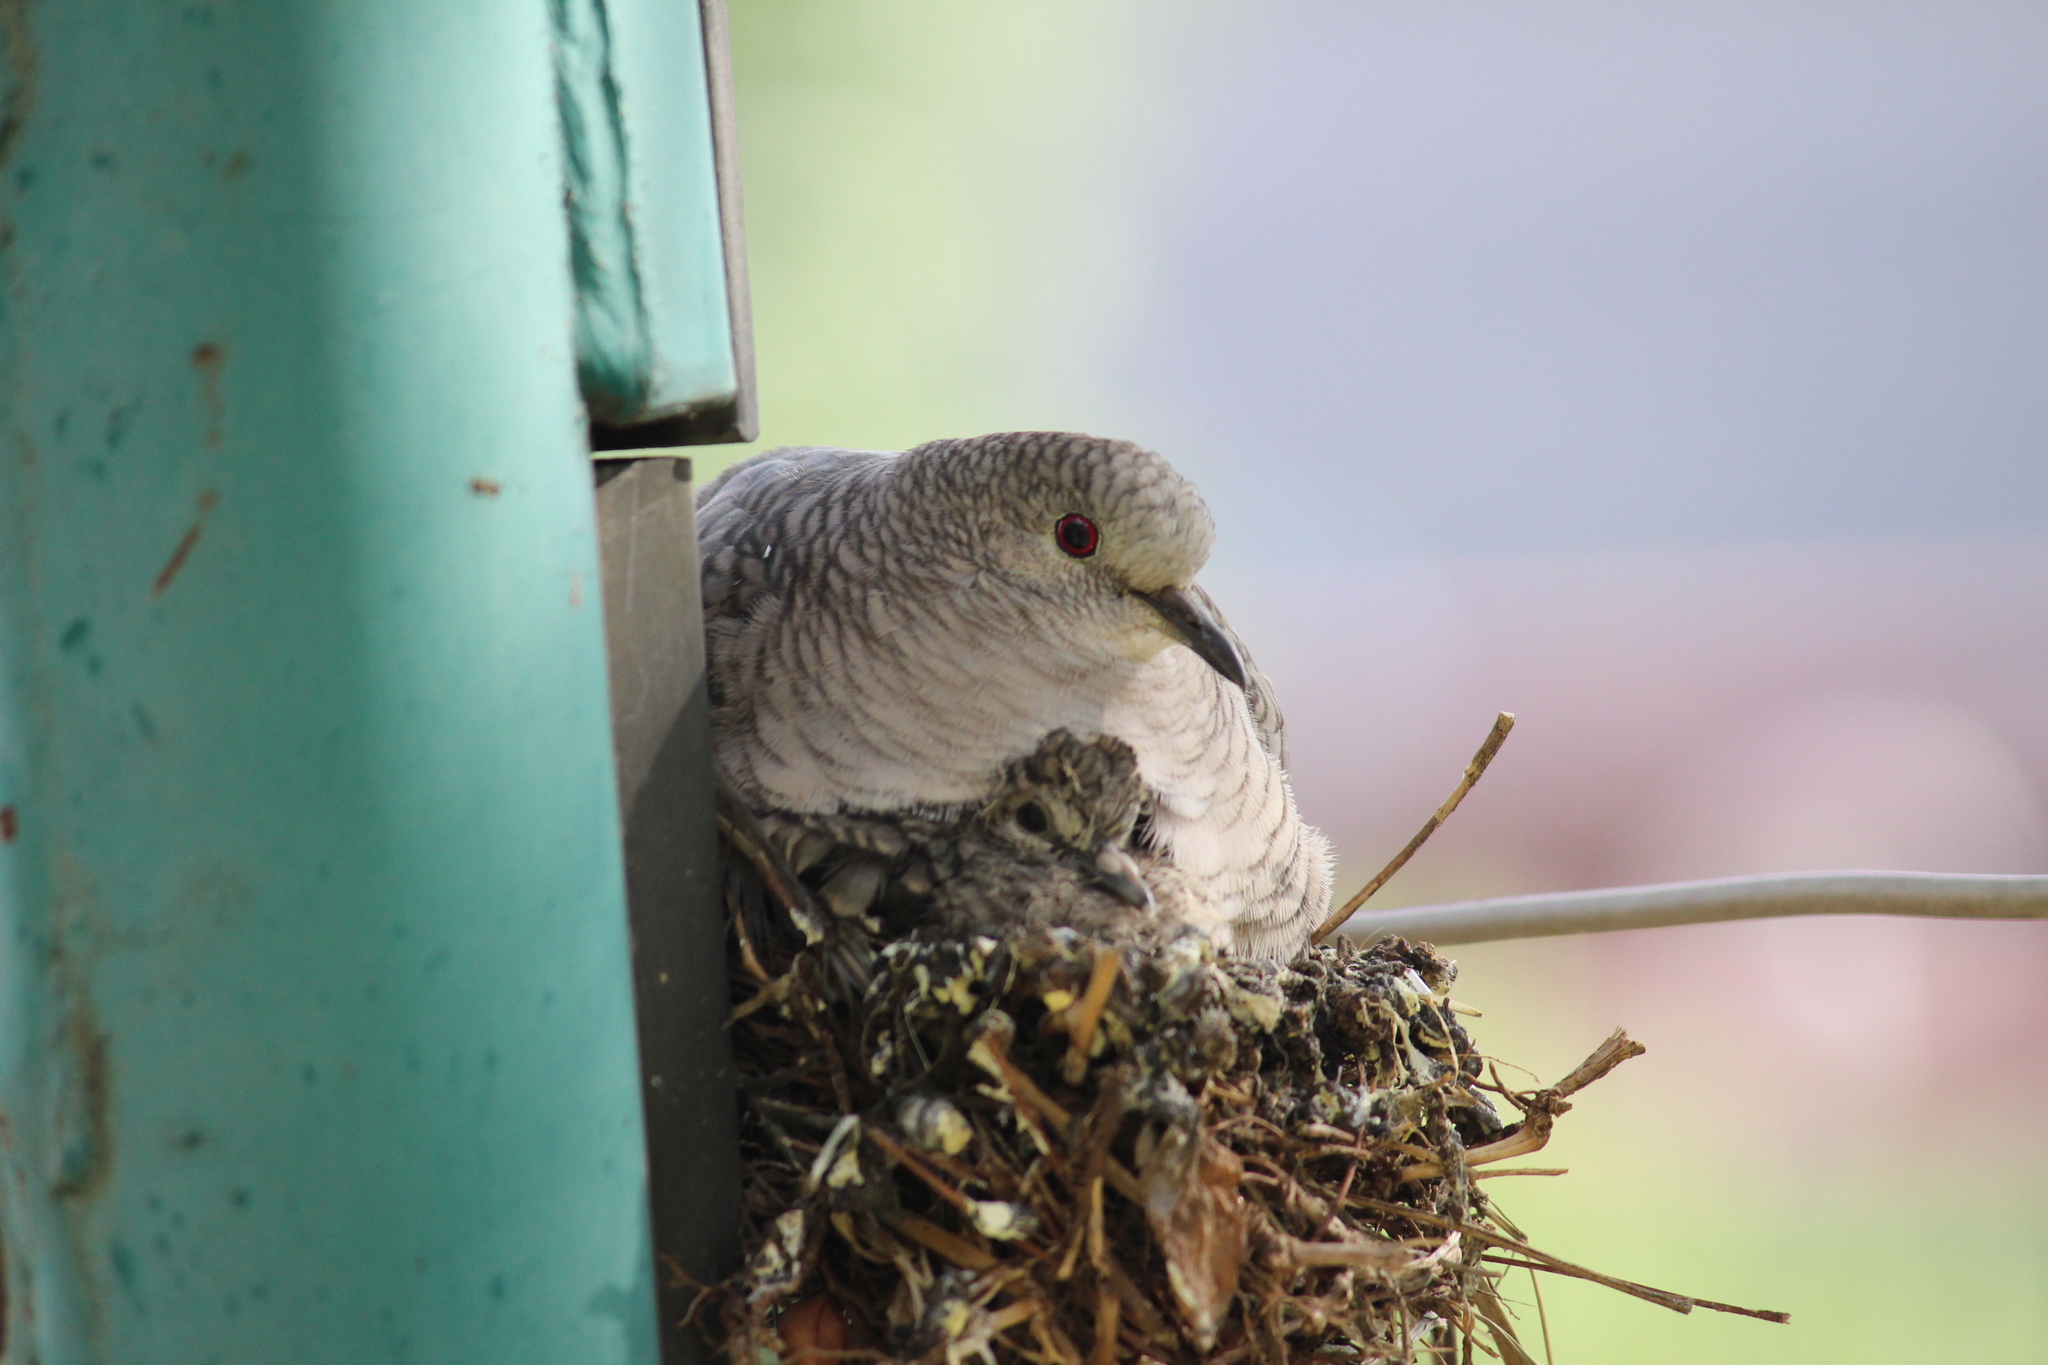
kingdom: Animalia
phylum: Chordata
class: Aves
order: Columbiformes
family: Columbidae
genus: Columbina
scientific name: Columbina inca
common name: Inca dove
